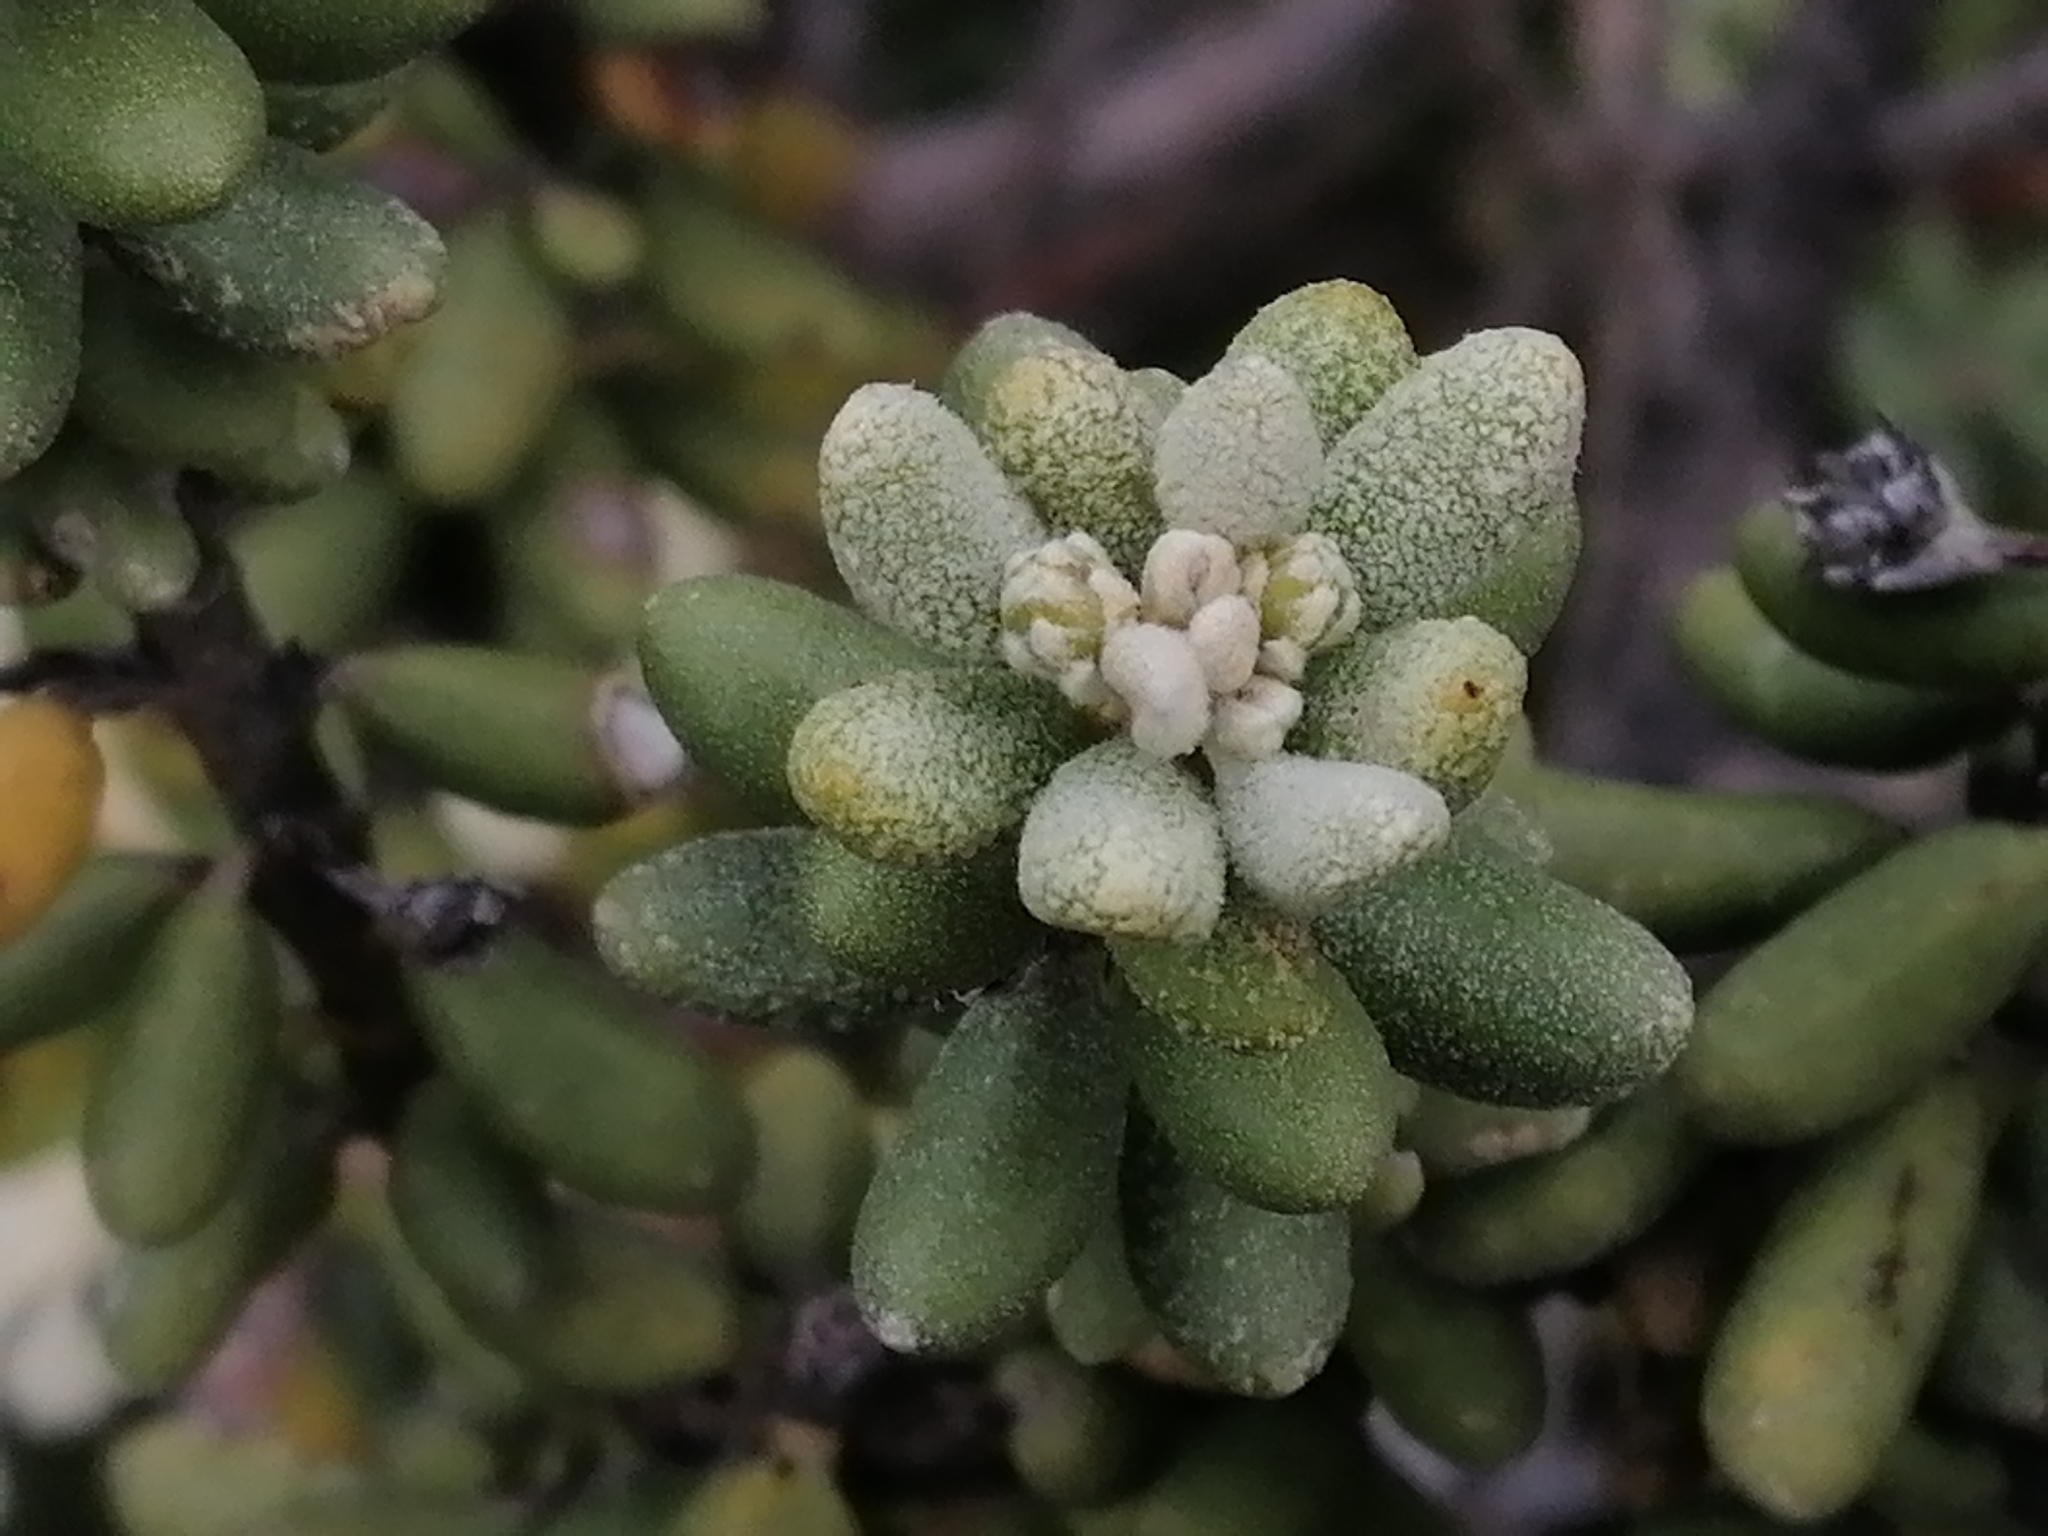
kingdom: Plantae
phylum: Tracheophyta
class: Magnoliopsida
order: Asterales
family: Asteraceae
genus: Olearia
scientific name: Olearia cymbifolia
